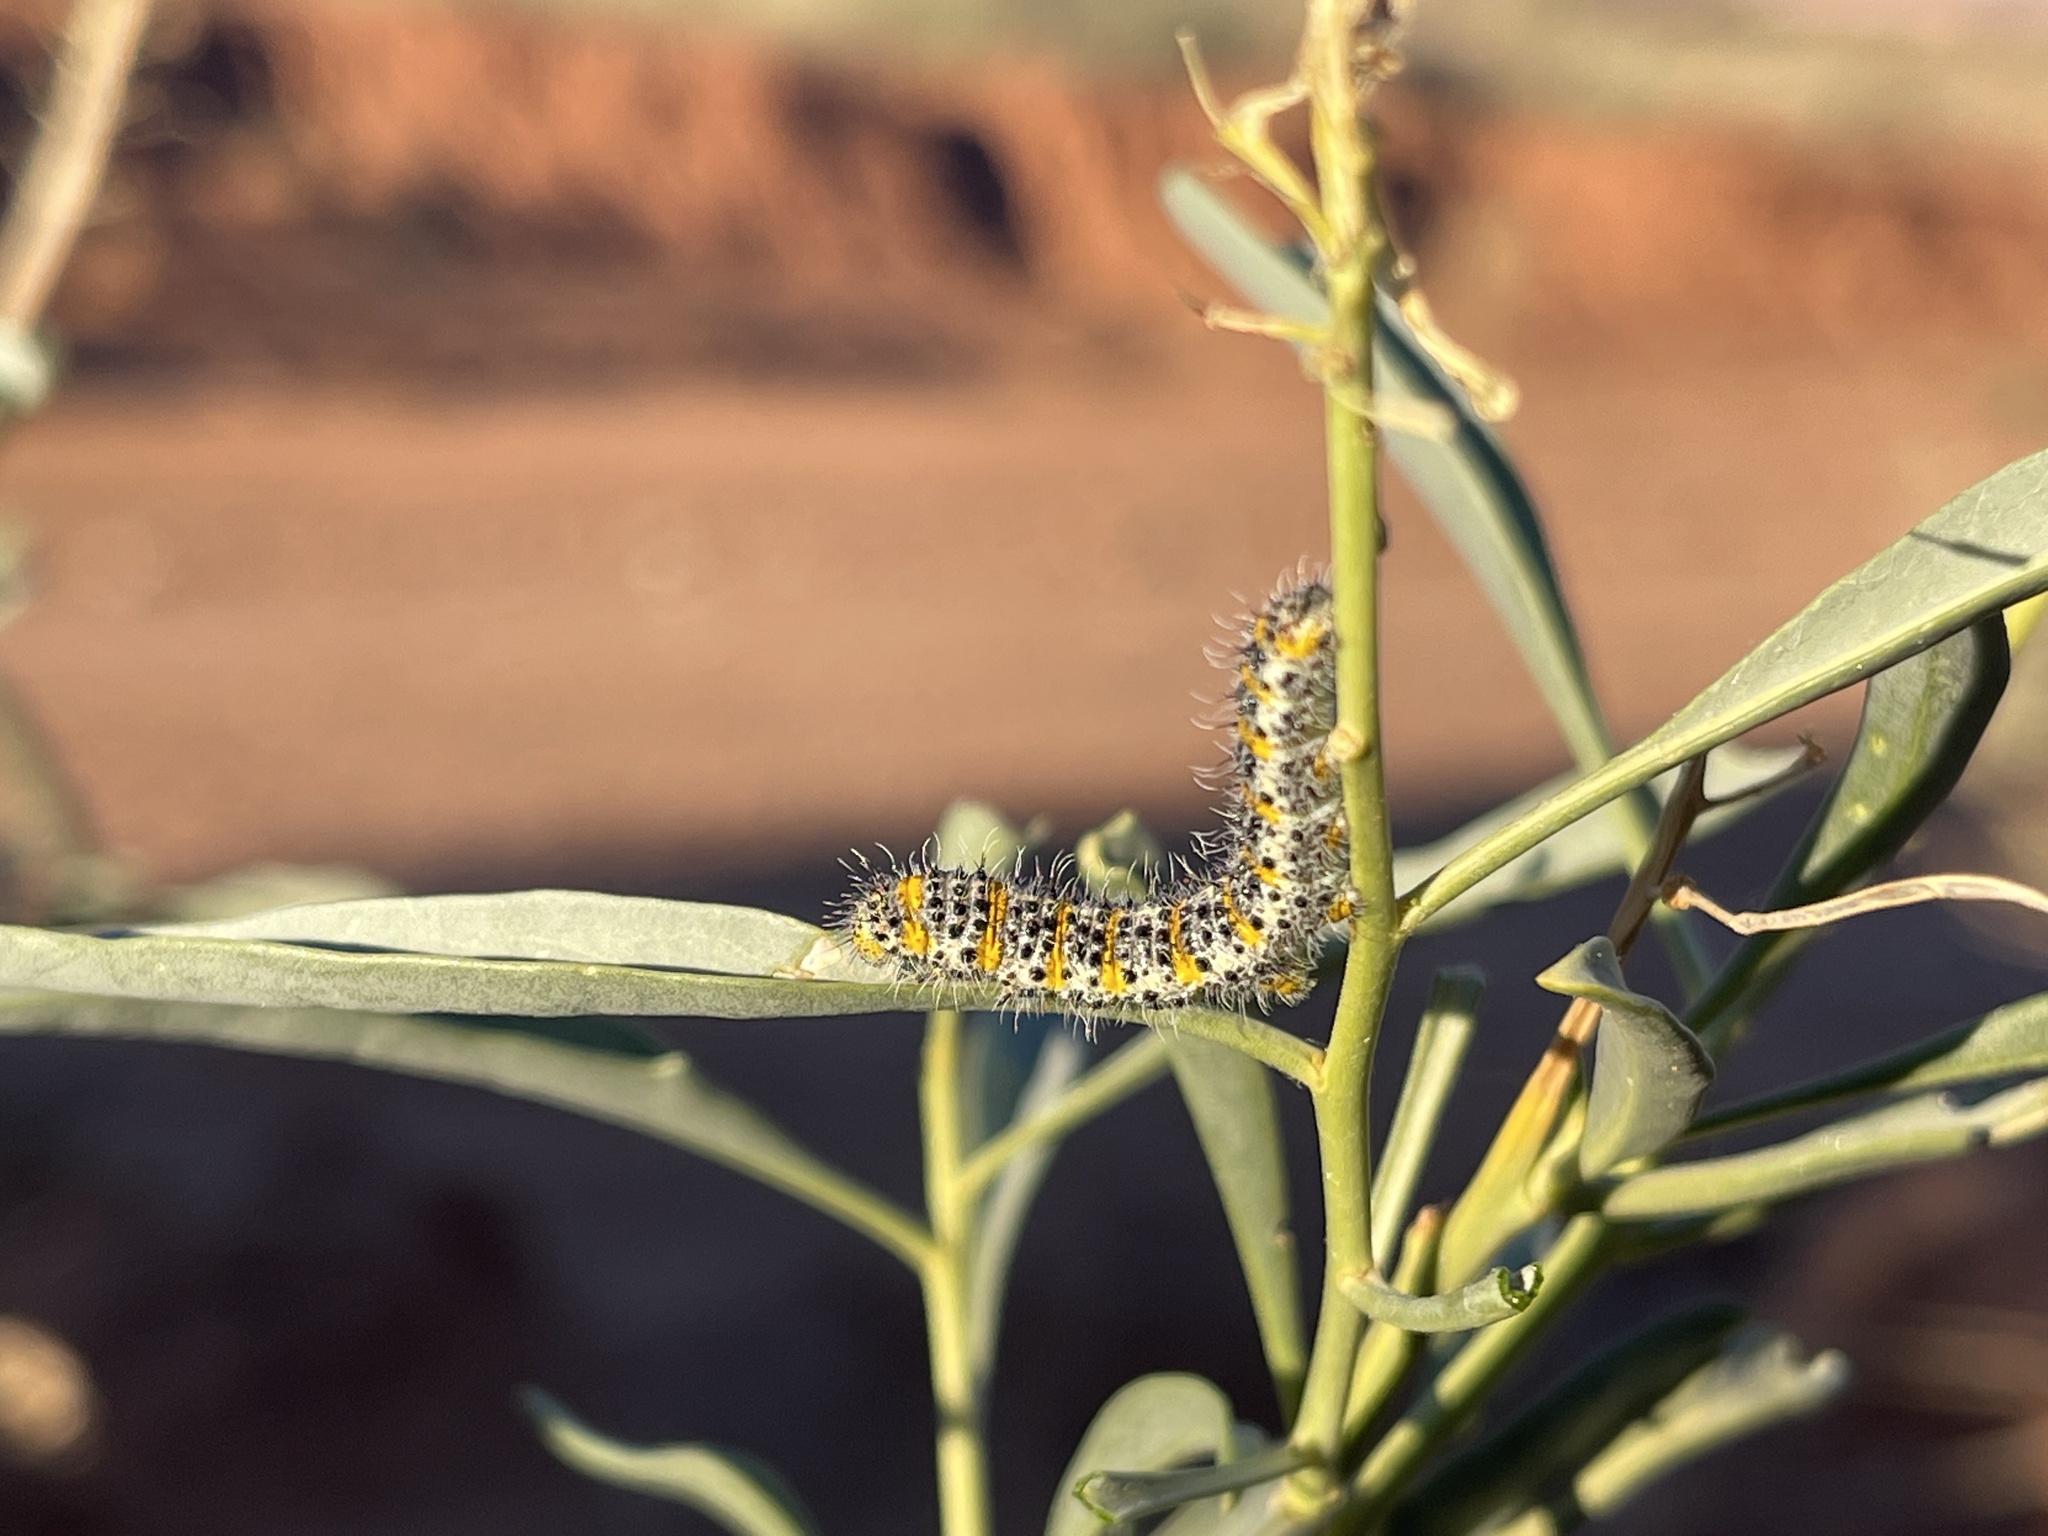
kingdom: Animalia
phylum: Arthropoda
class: Insecta
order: Lepidoptera
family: Pieridae
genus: Pontia
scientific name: Pontia beckerii
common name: Becker's white
